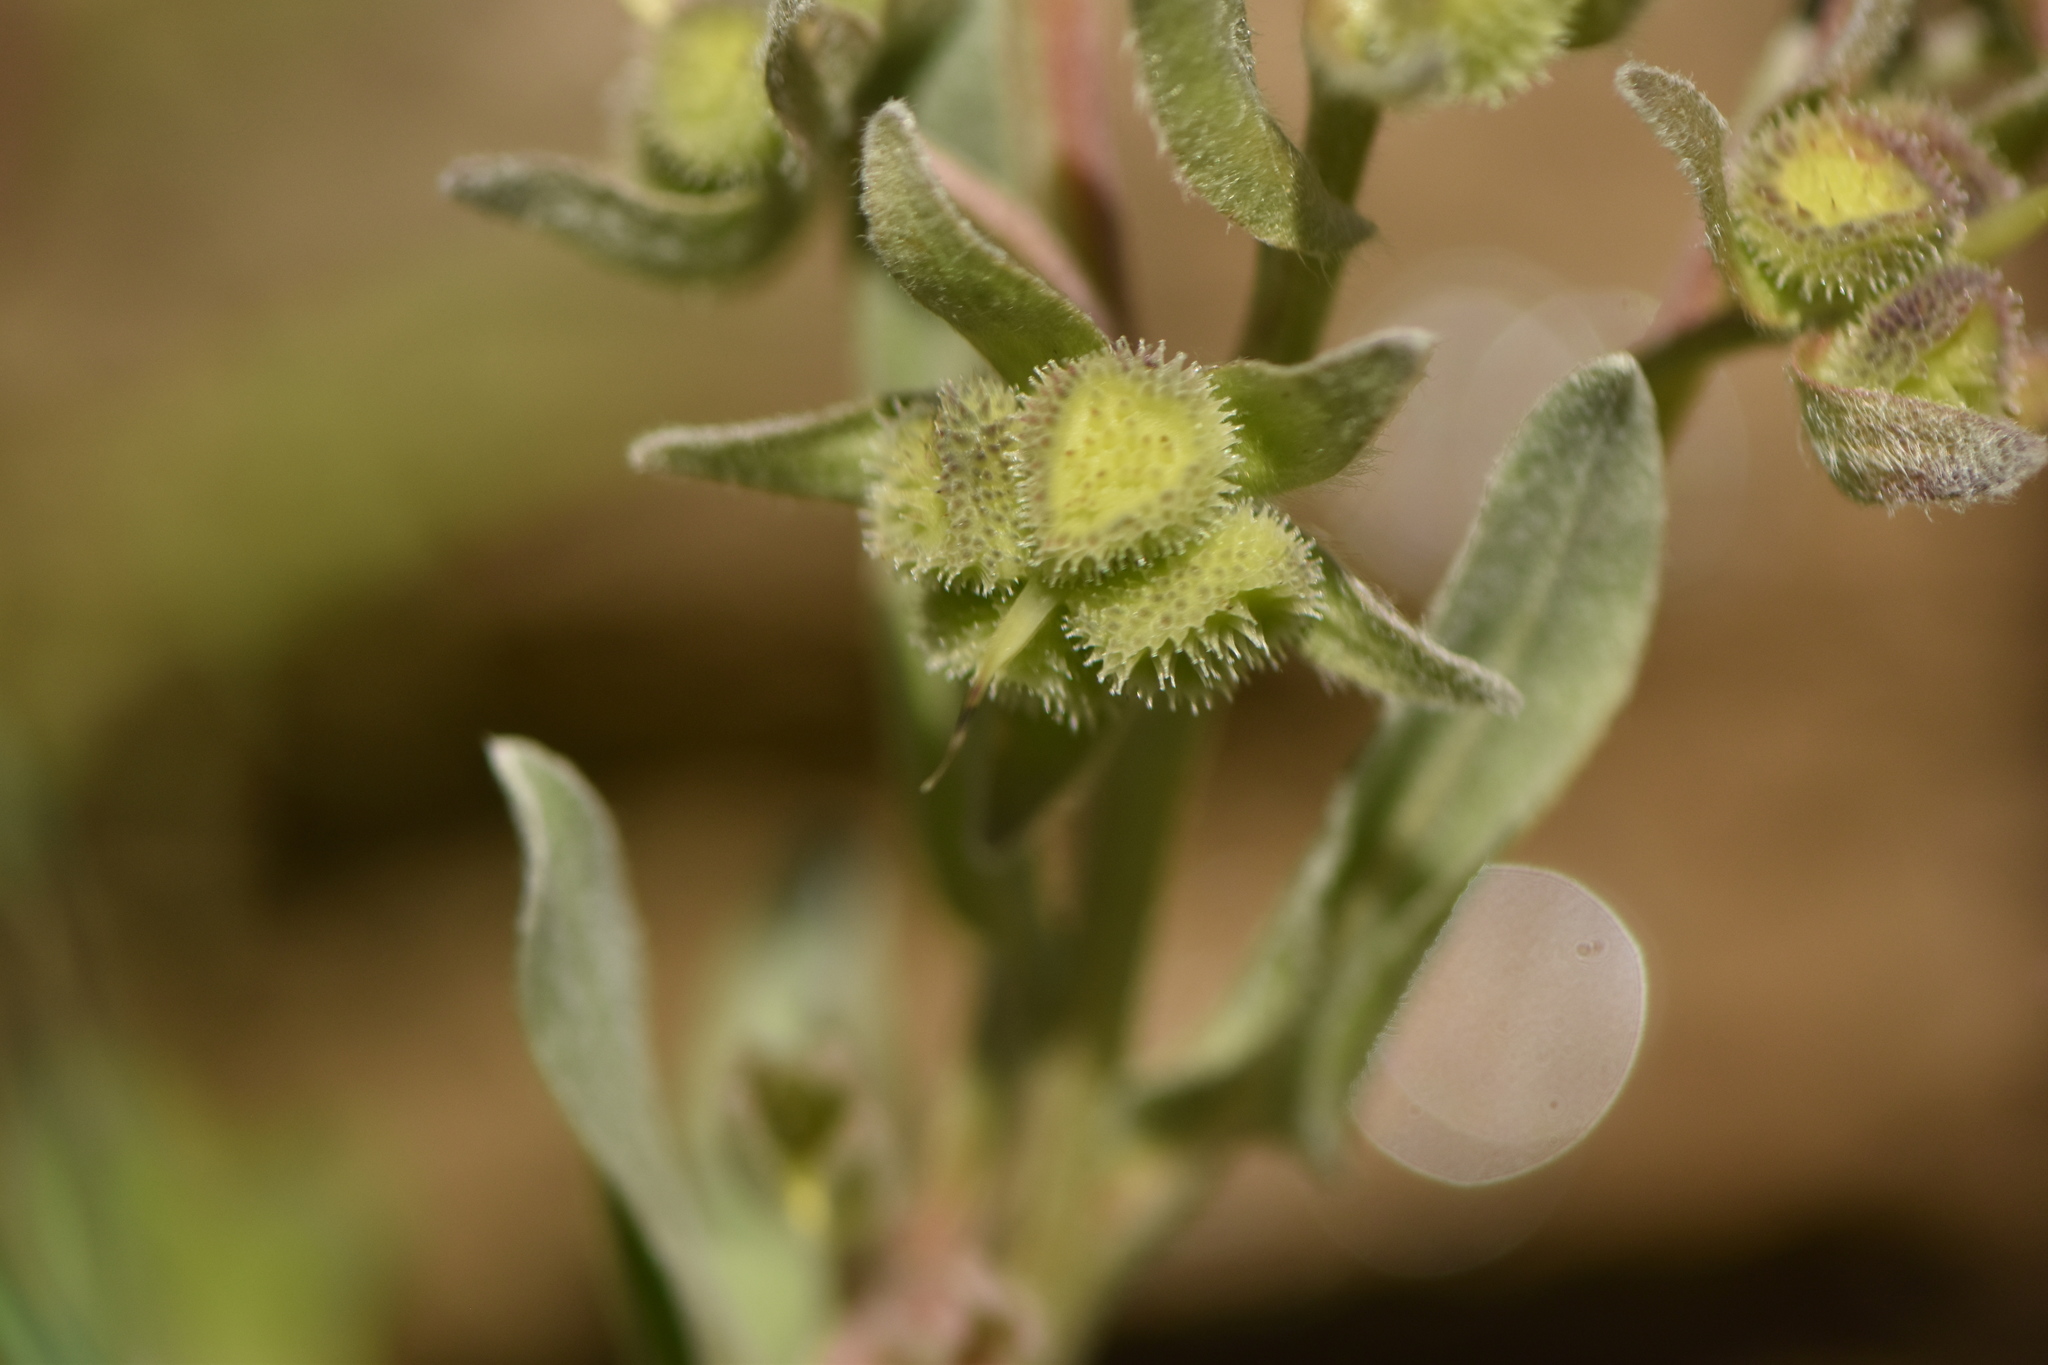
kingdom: Plantae
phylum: Tracheophyta
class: Magnoliopsida
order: Boraginales
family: Boraginaceae
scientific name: Boraginaceae
